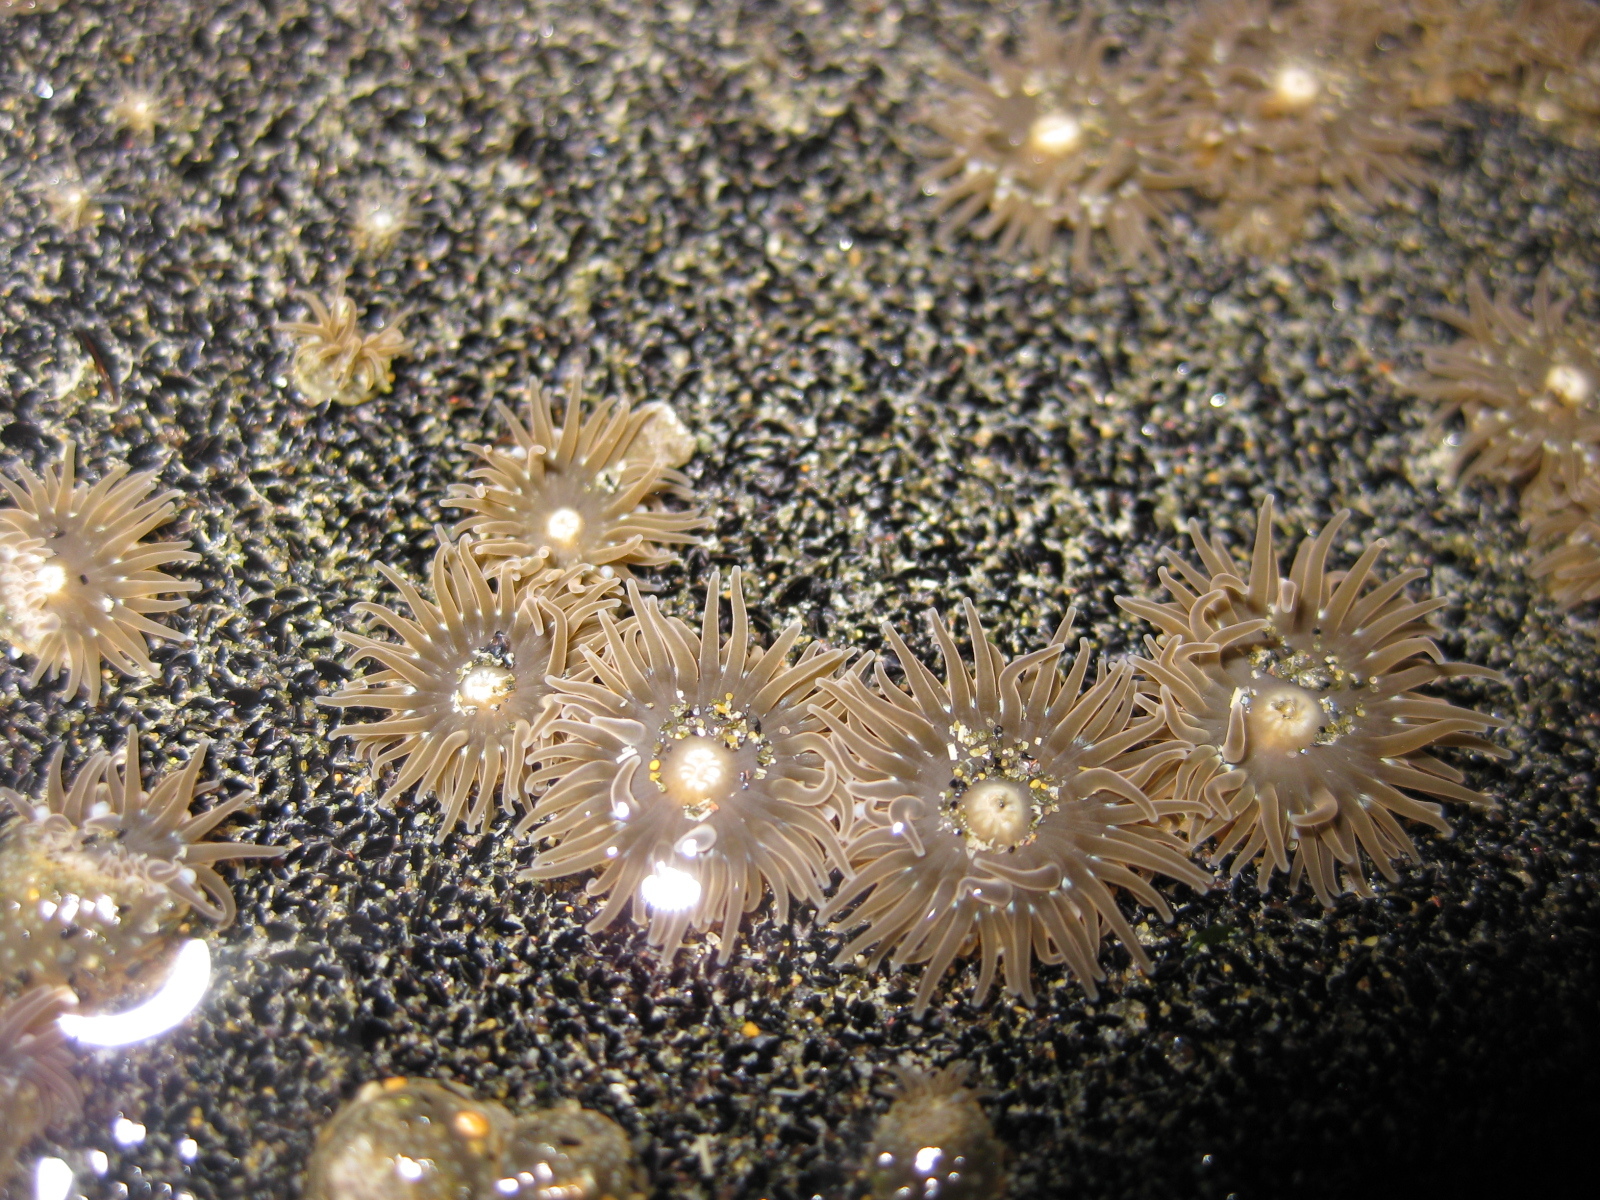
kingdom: Animalia
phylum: Cnidaria
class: Anthozoa
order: Actiniaria
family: Actiniidae
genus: Anthopleura
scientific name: Anthopleura hermaphroditica
